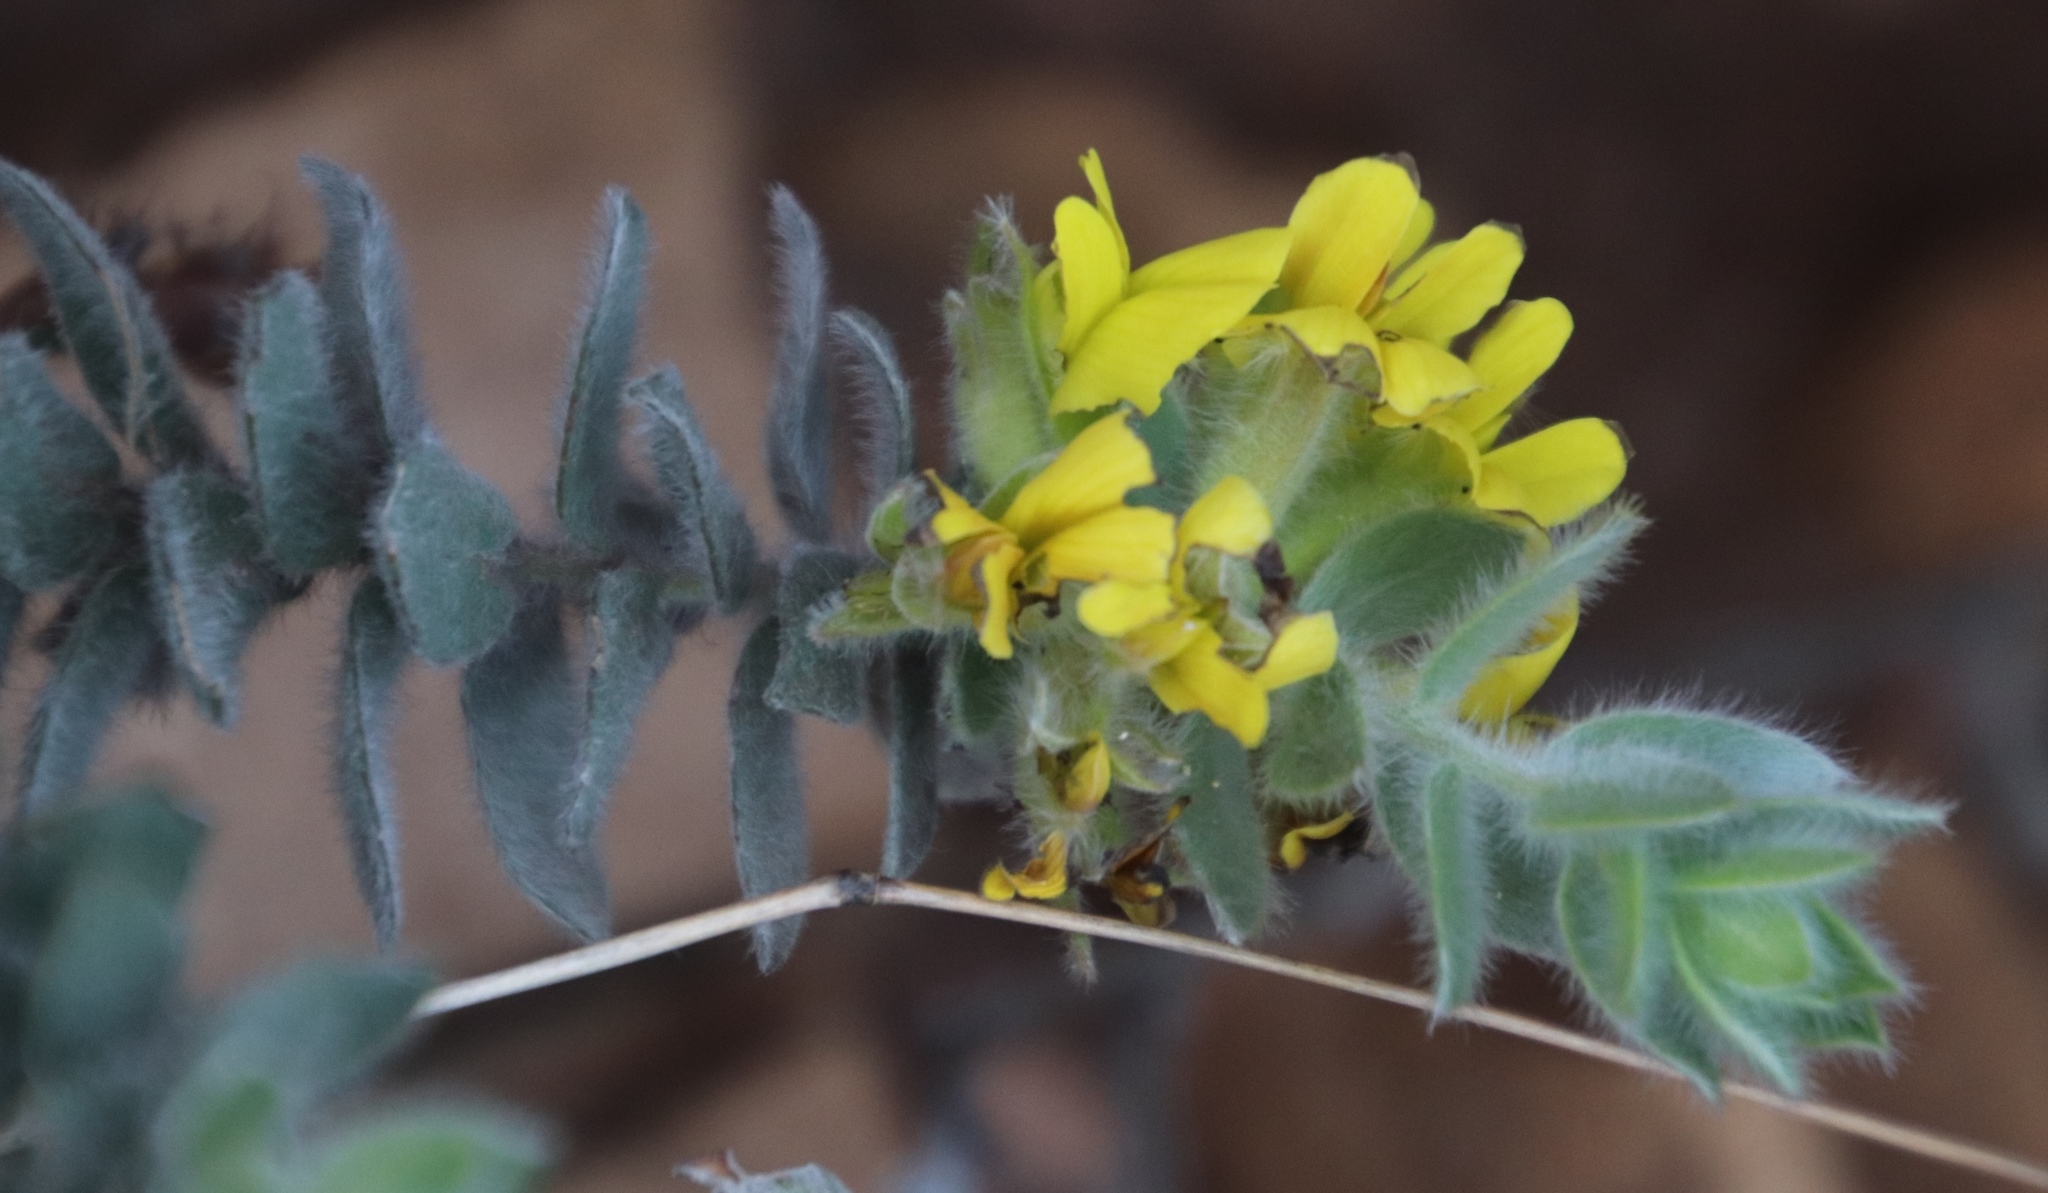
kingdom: Plantae
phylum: Tracheophyta
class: Magnoliopsida
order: Fabales
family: Fabaceae
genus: Xiphotheca
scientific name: Xiphotheca reflexa
